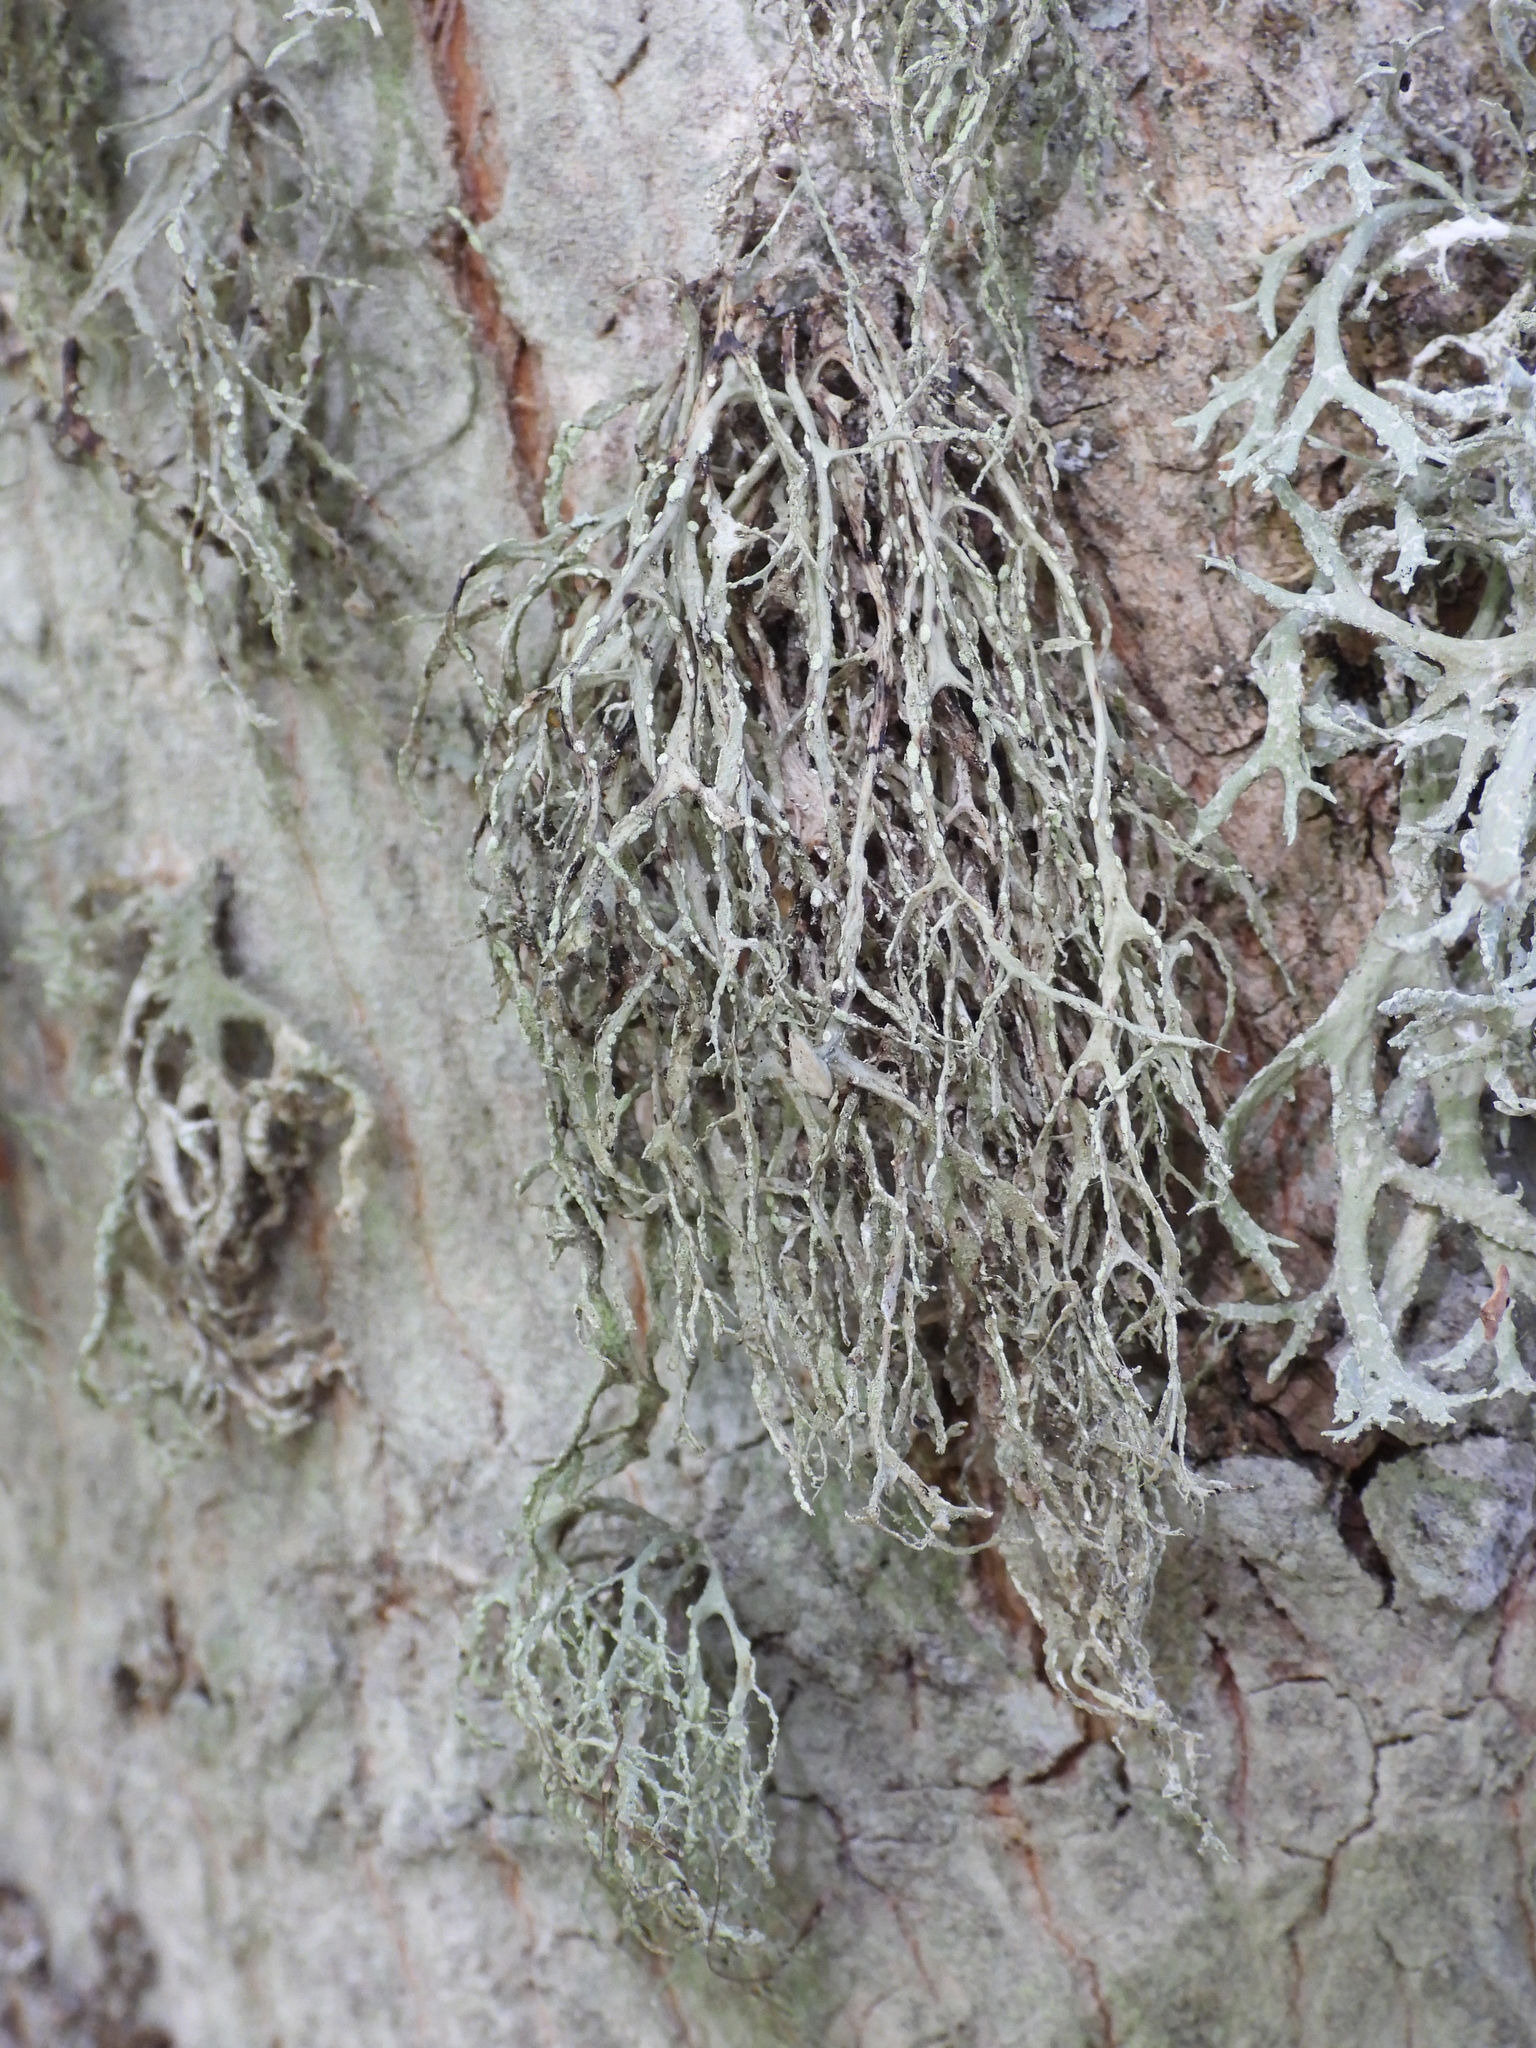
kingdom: Fungi
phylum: Ascomycota
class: Lecanoromycetes
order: Lecanorales
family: Ramalinaceae
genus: Ramalina
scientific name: Ramalina farinacea
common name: Farinose cartilage lichen
